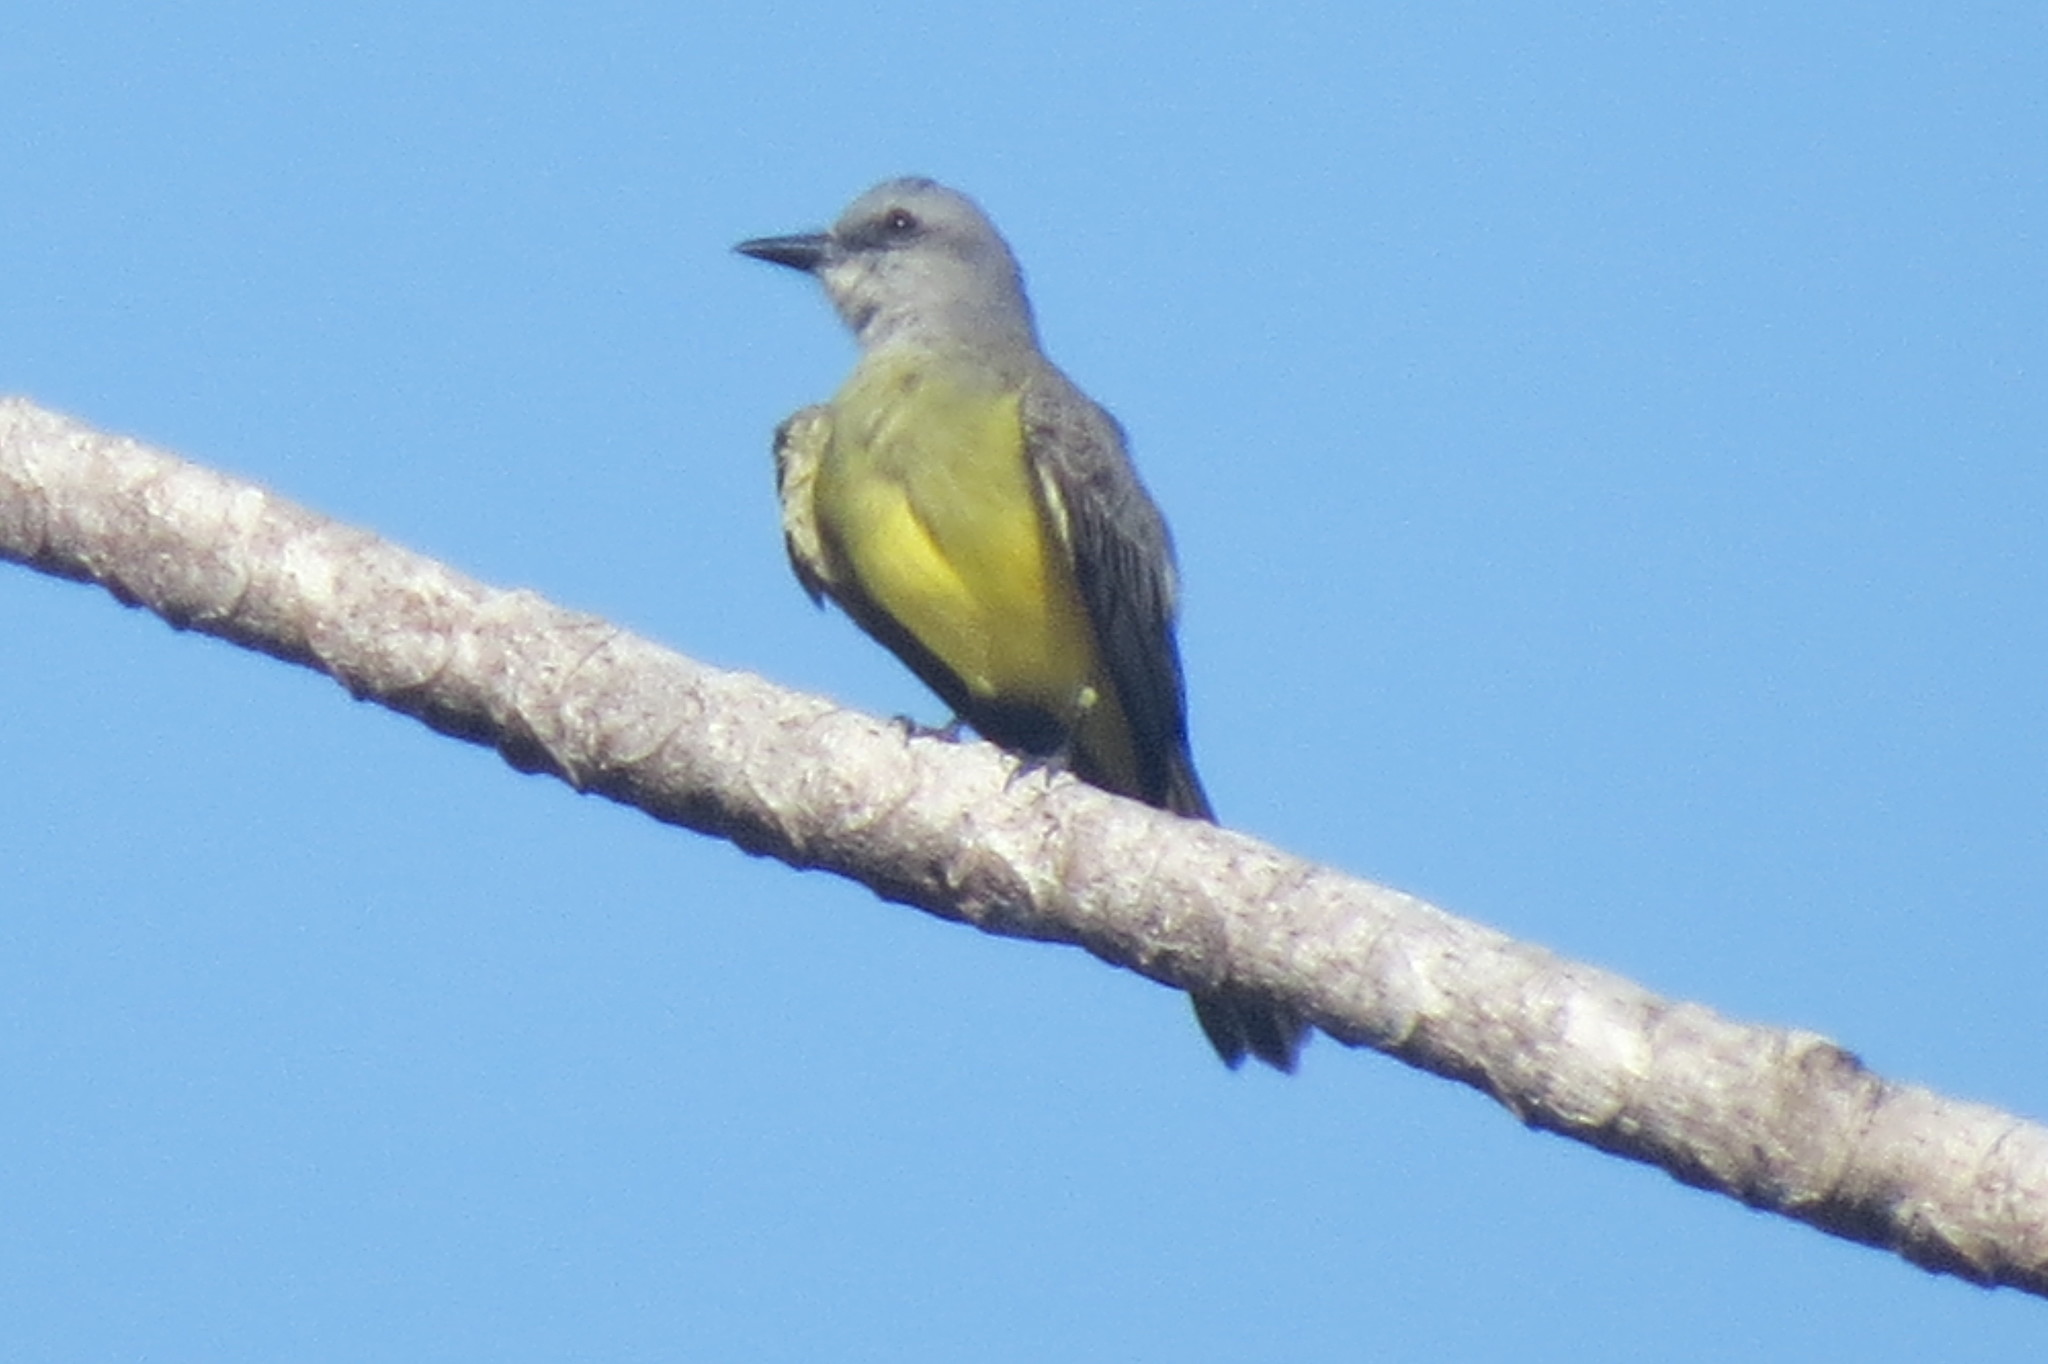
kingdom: Animalia
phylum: Chordata
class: Aves
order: Passeriformes
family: Tyrannidae
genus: Tyrannus
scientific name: Tyrannus melancholicus
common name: Tropical kingbird
